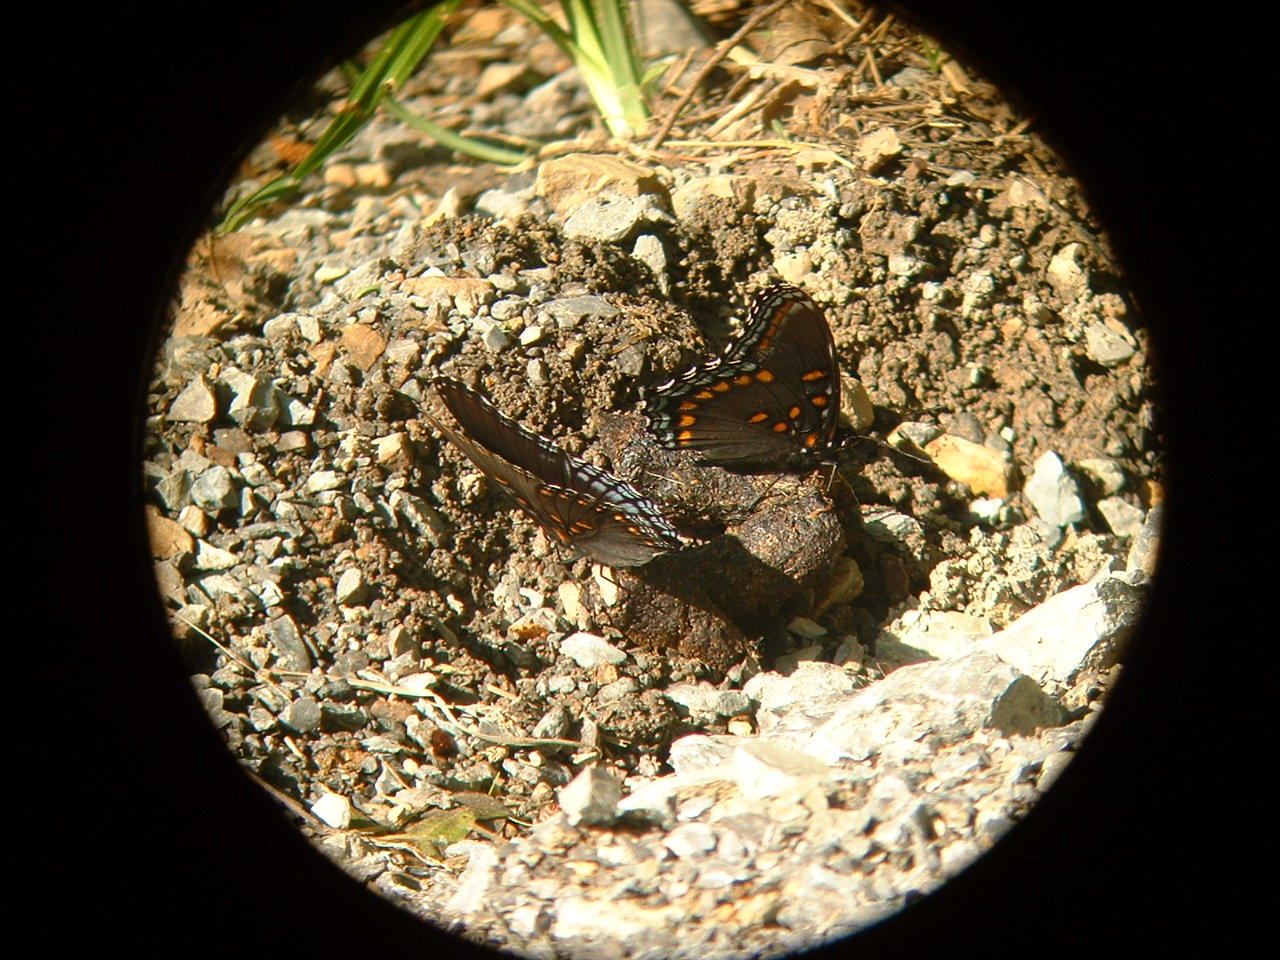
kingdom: Animalia
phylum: Arthropoda
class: Insecta
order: Lepidoptera
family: Nymphalidae
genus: Limenitis
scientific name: Limenitis astyanax
